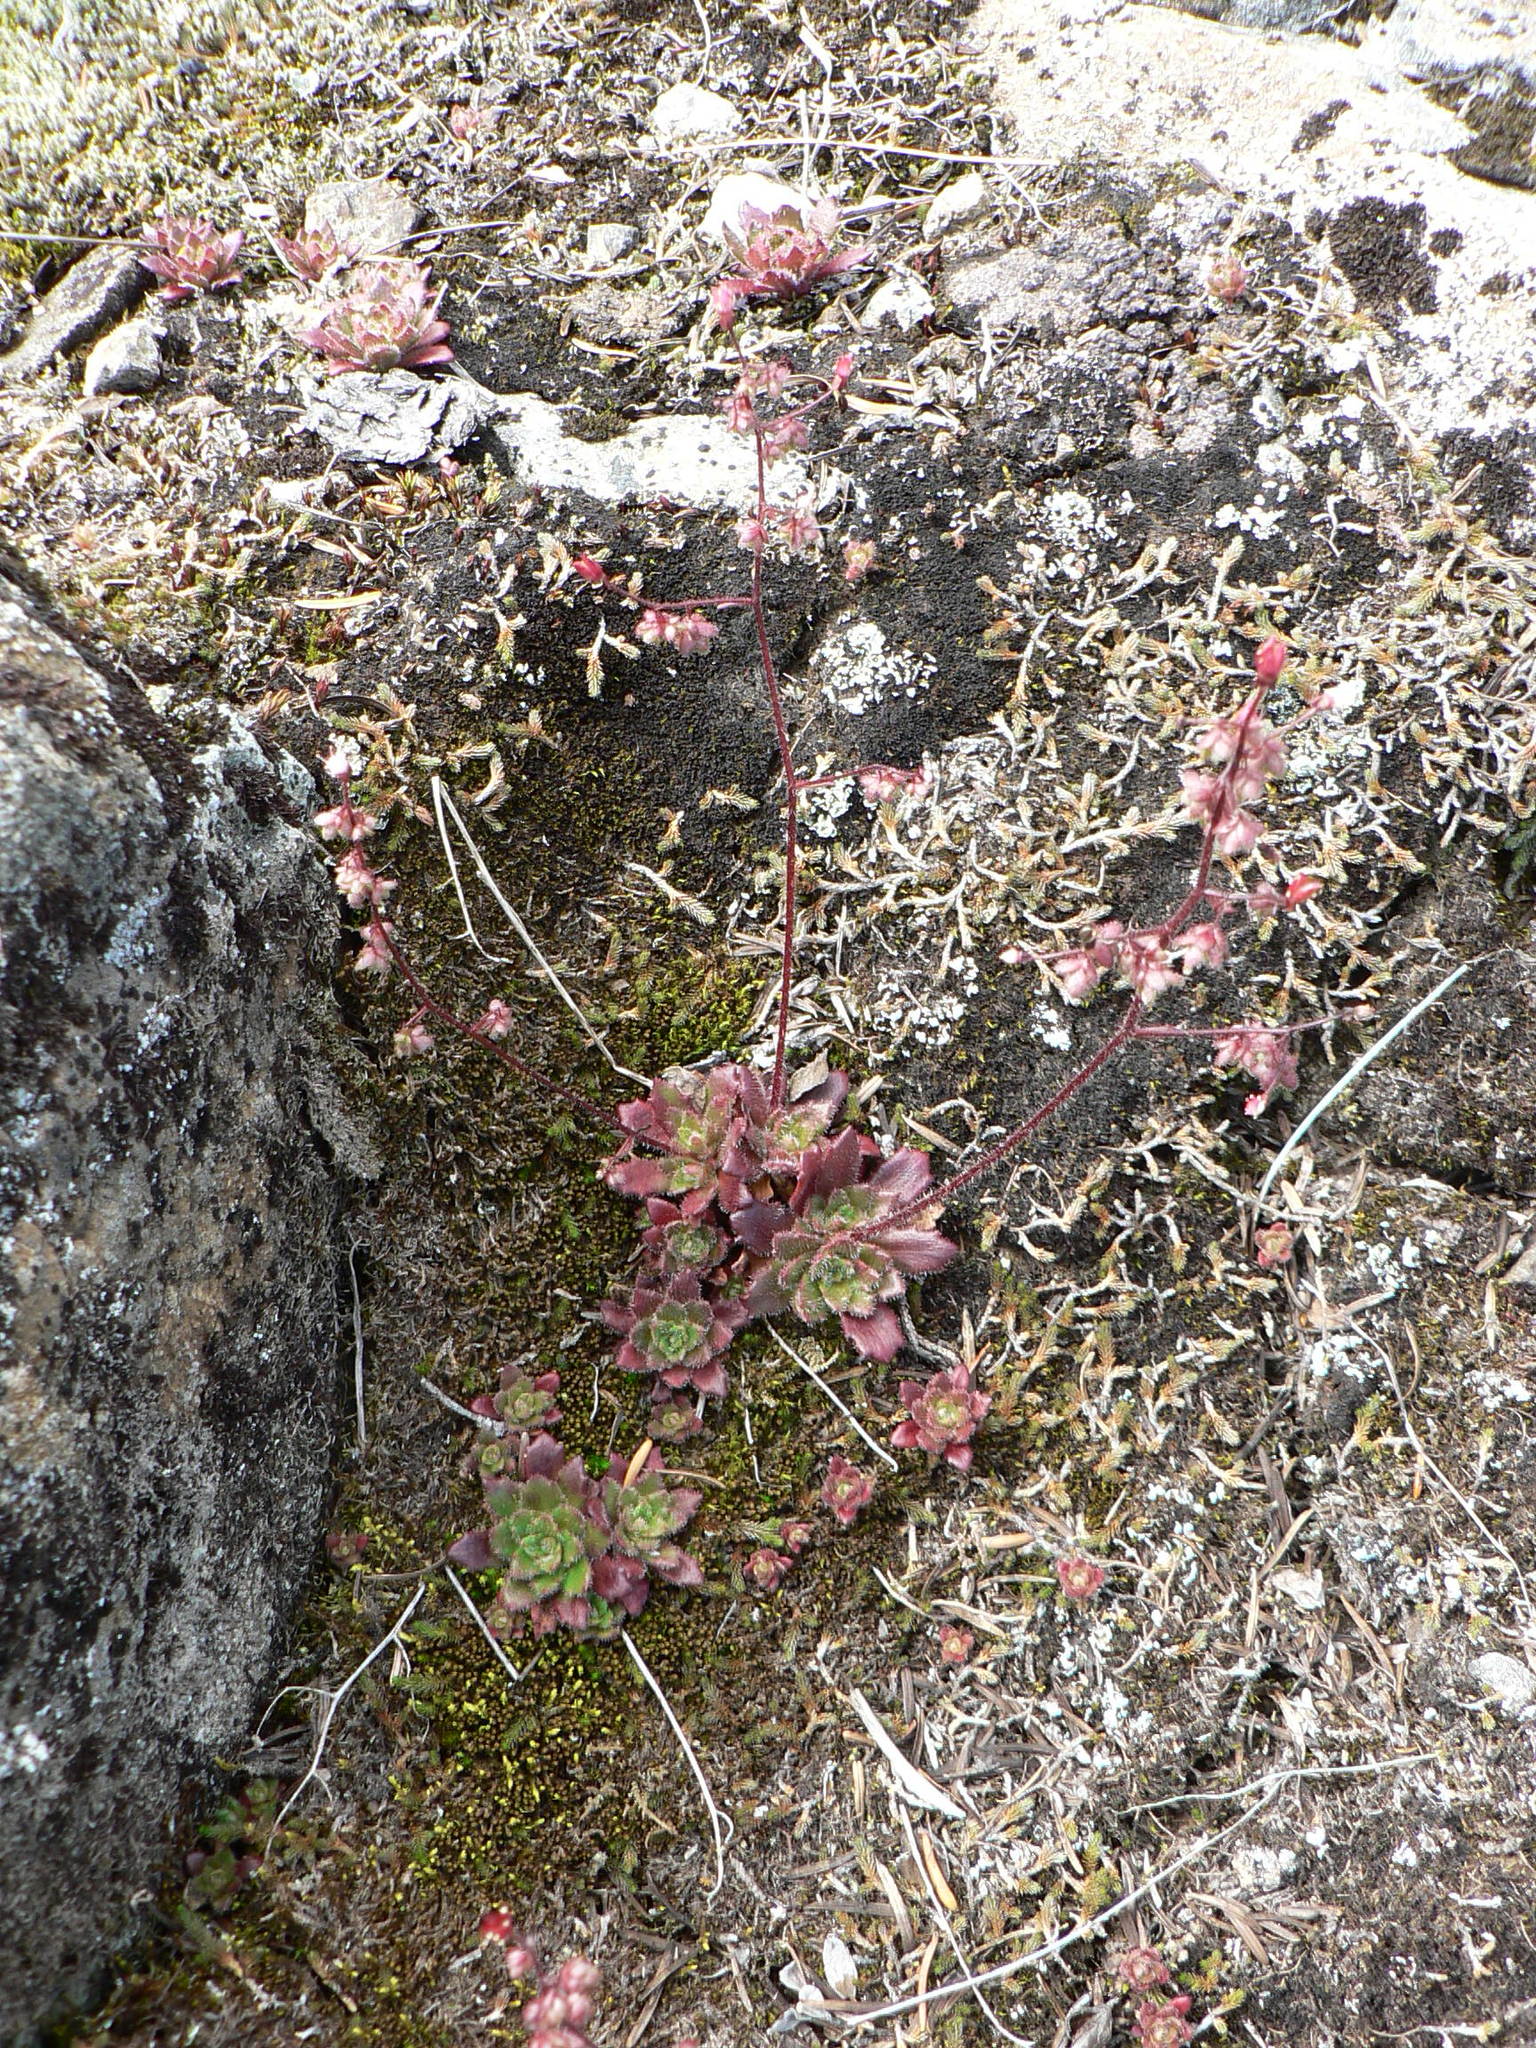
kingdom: Plantae
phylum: Tracheophyta
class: Magnoliopsida
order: Saxifragales
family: Saxifragaceae
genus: Micranthes
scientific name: Micranthes ferruginea
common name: Rusty saxifrage
